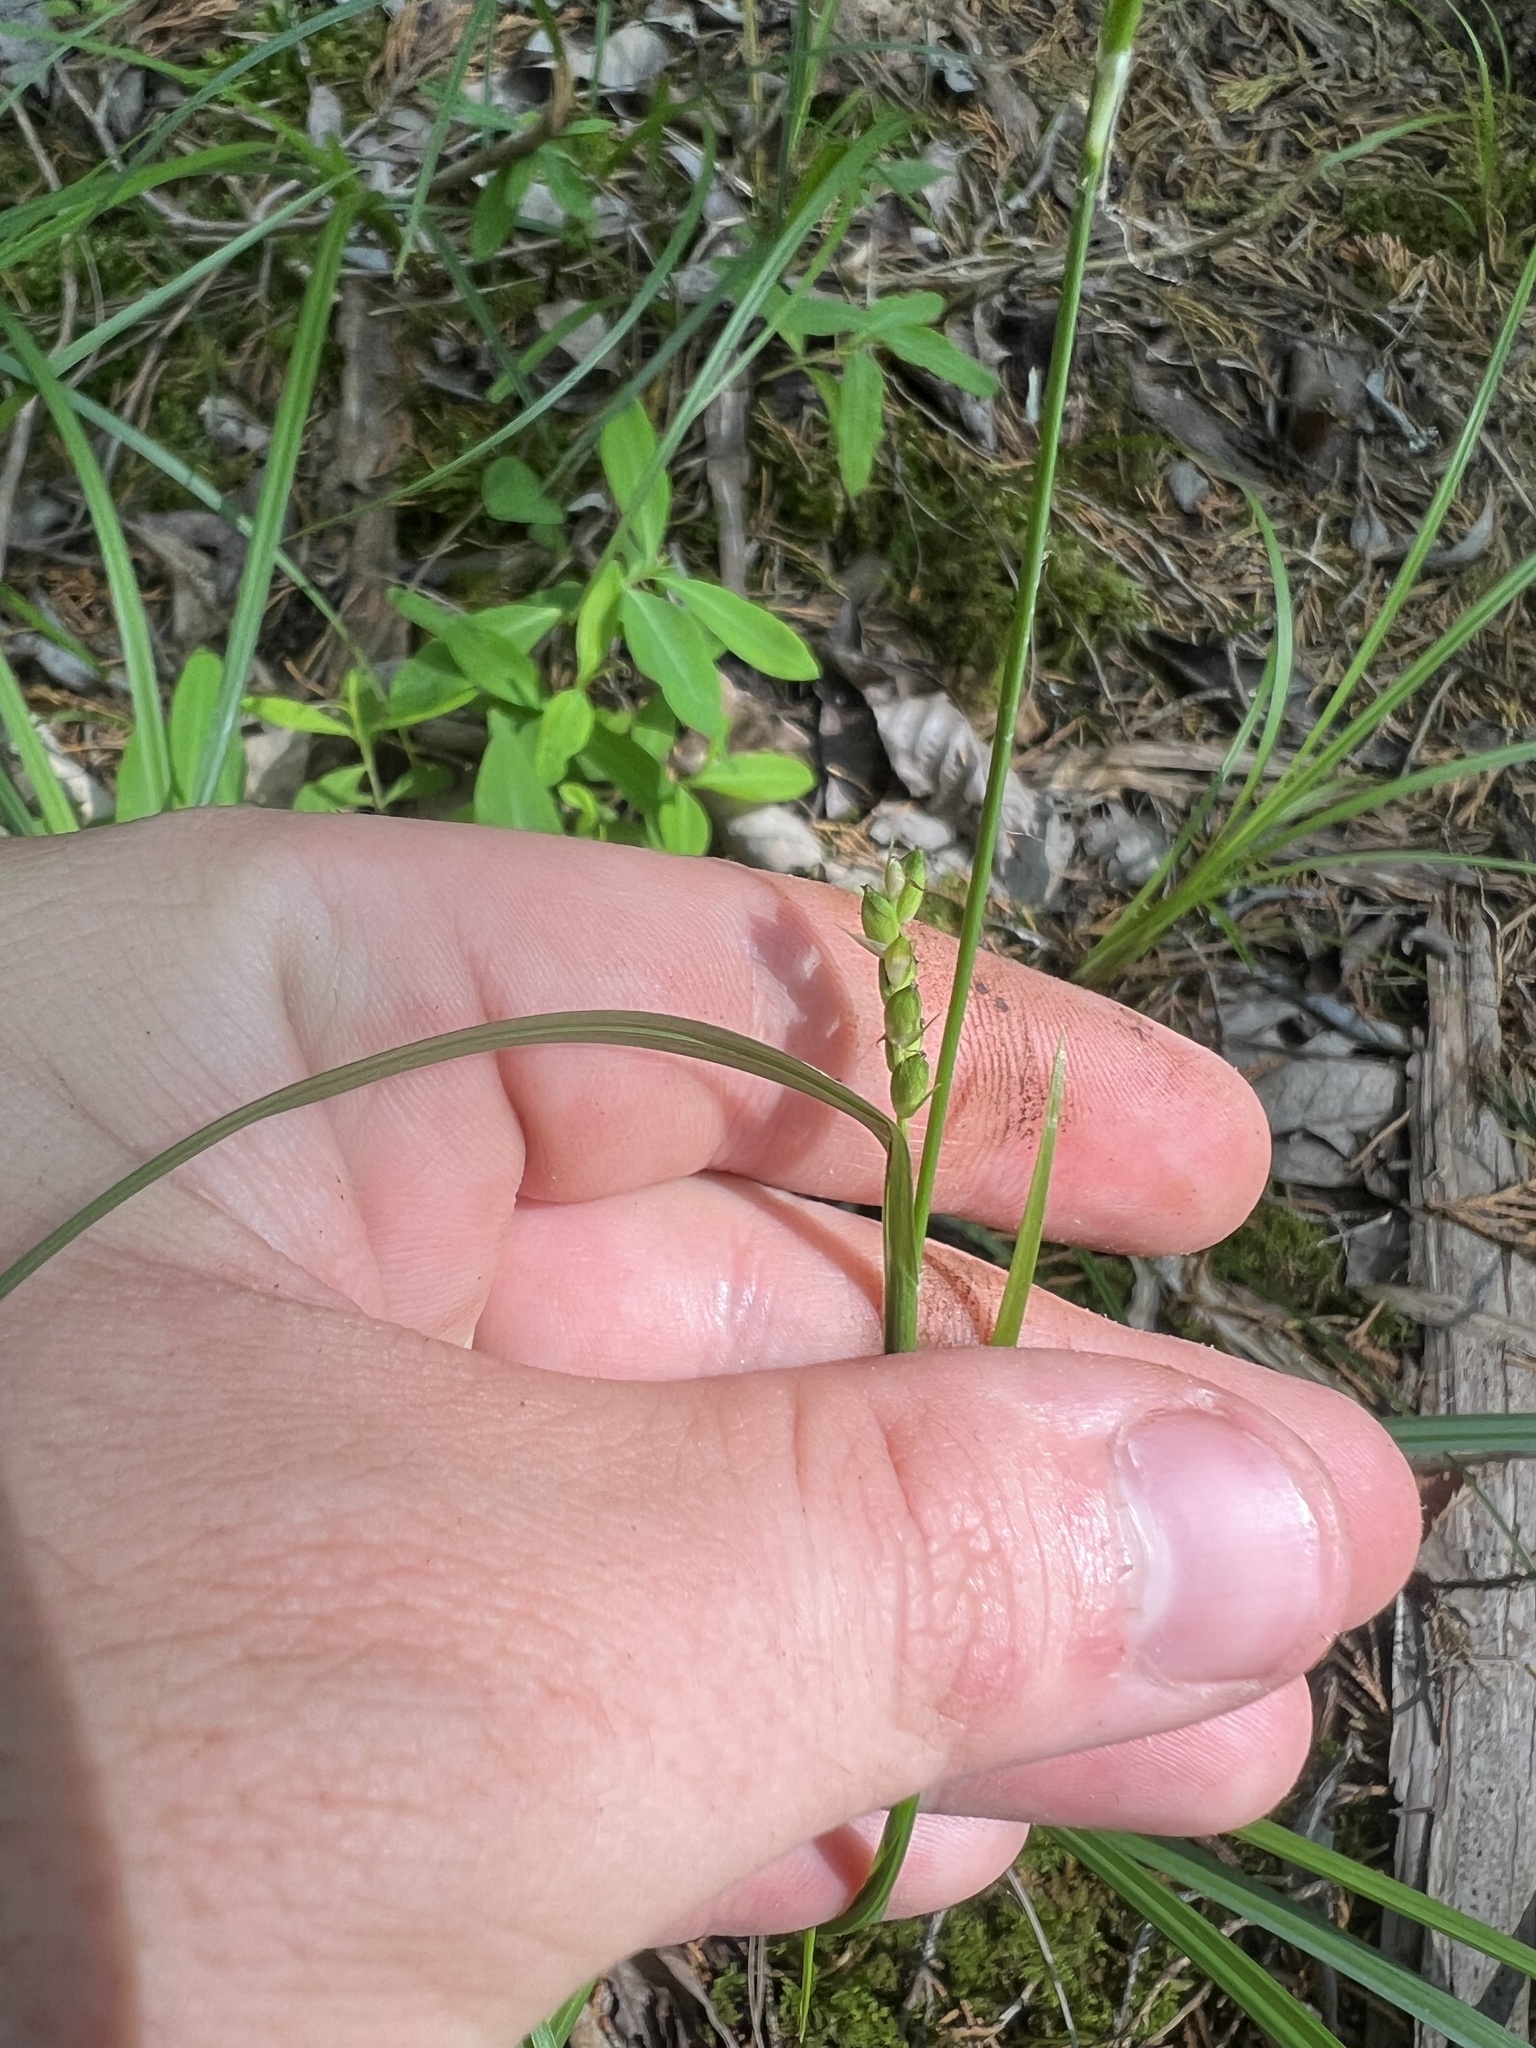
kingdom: Plantae
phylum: Tracheophyta
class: Liliopsida
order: Poales
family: Cyperaceae
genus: Carex
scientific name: Carex digitalis
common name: Slender wood sedge
